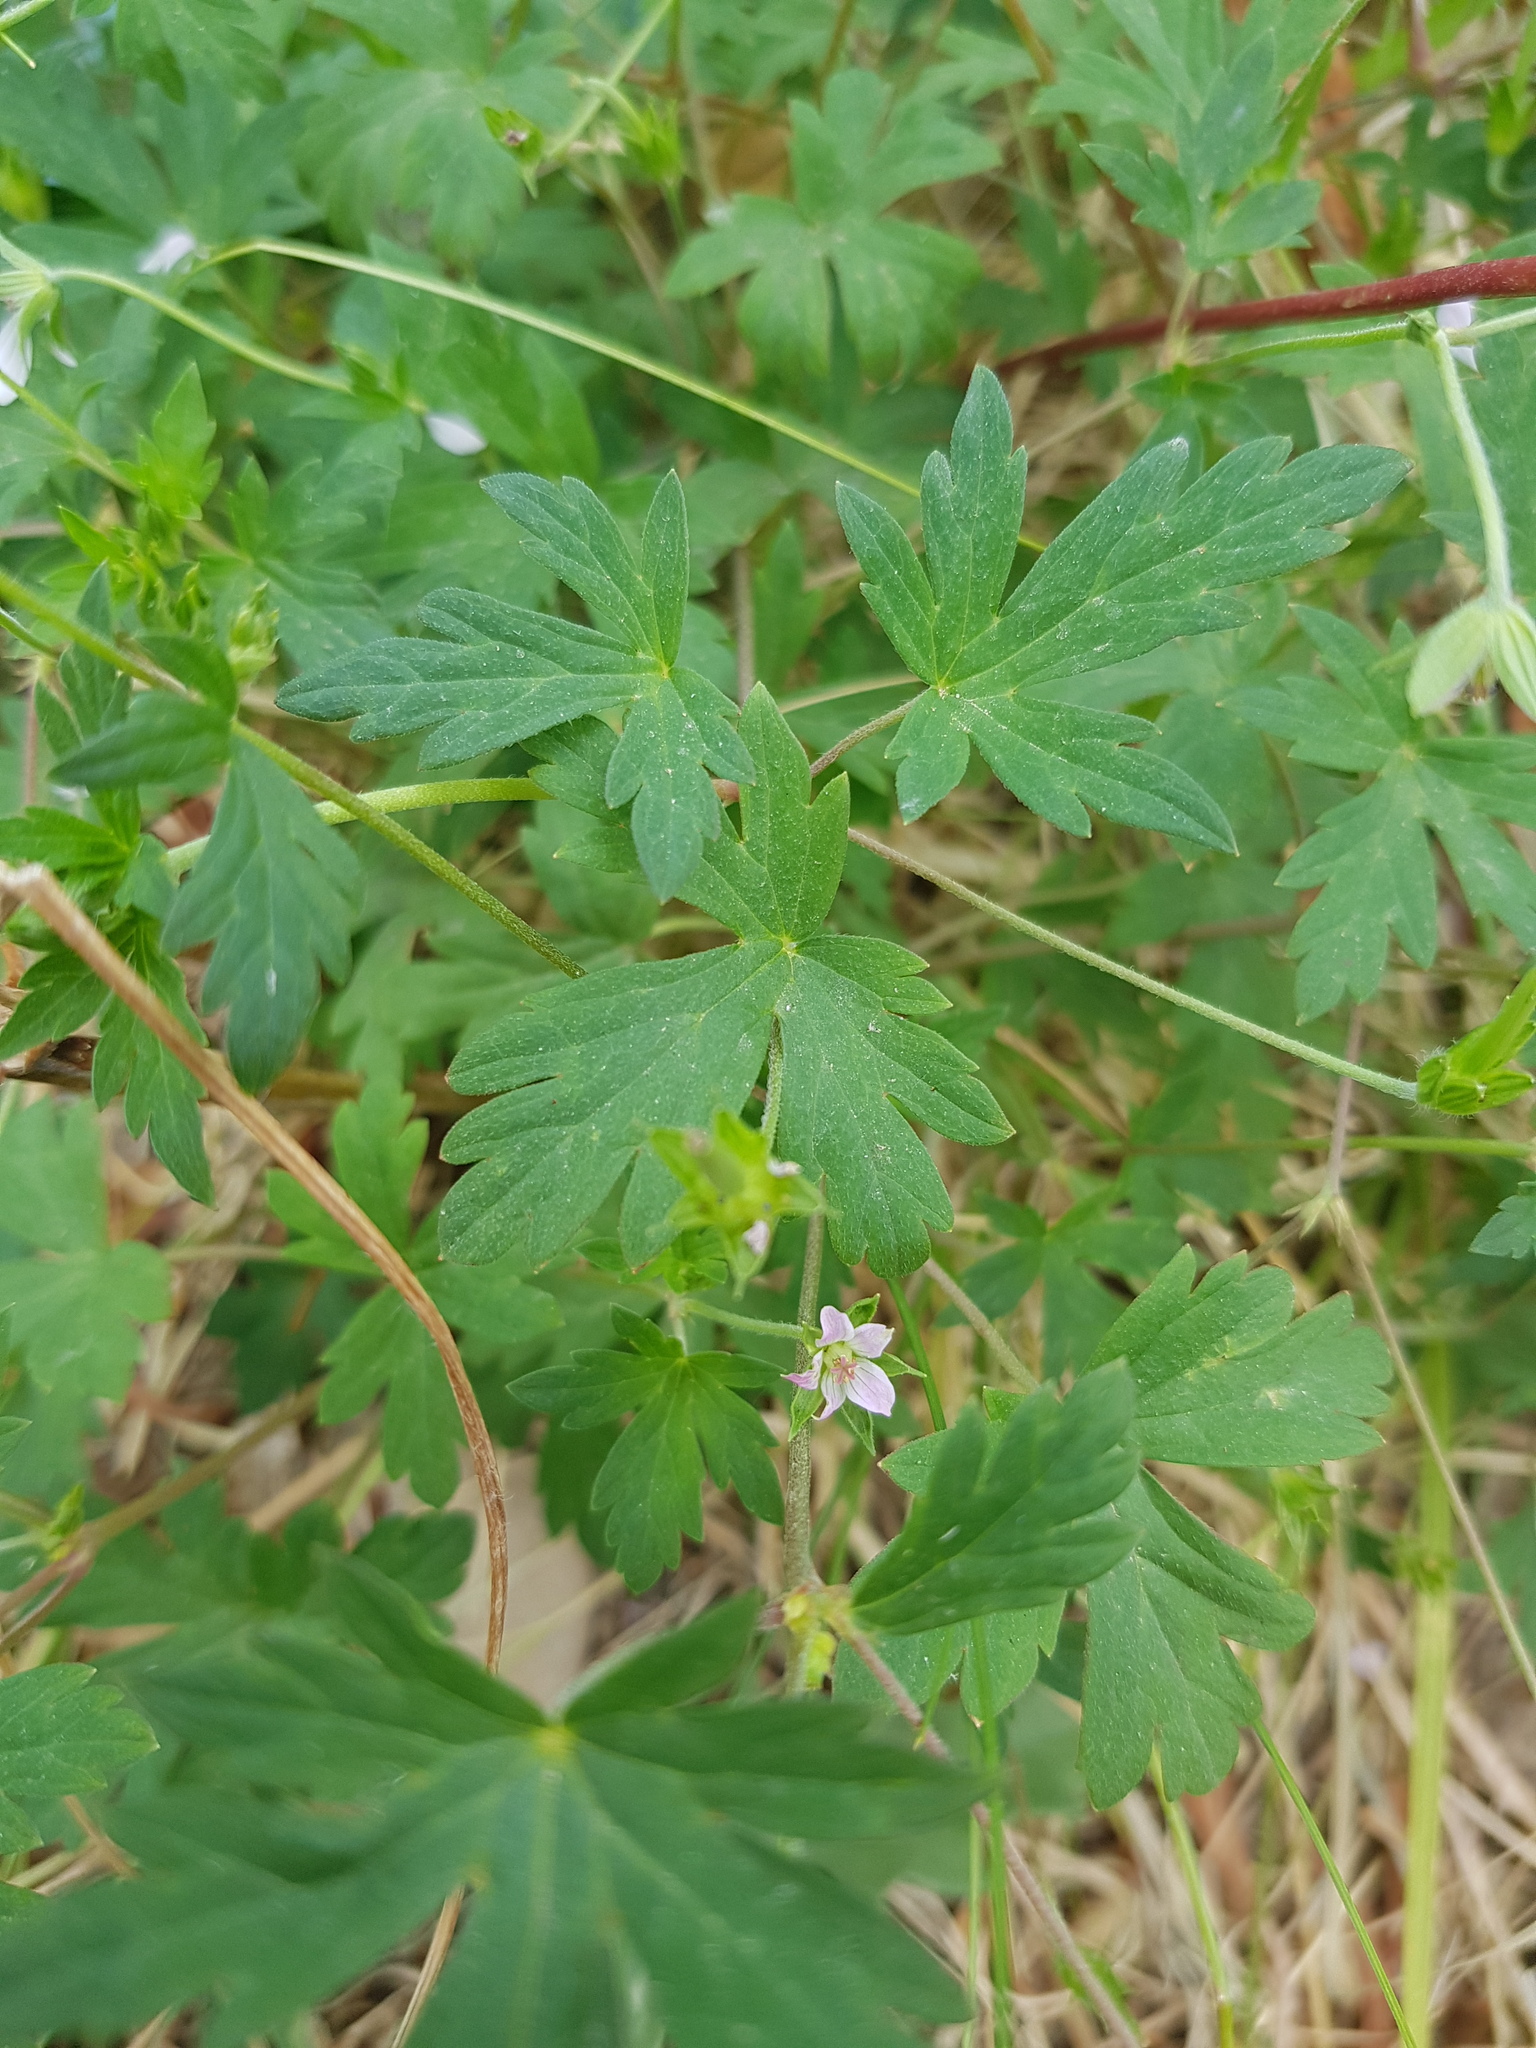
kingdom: Plantae
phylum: Tracheophyta
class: Magnoliopsida
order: Geraniales
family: Geraniaceae
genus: Geranium
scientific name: Geranium sibiricum
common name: Siberian crane's-bill
